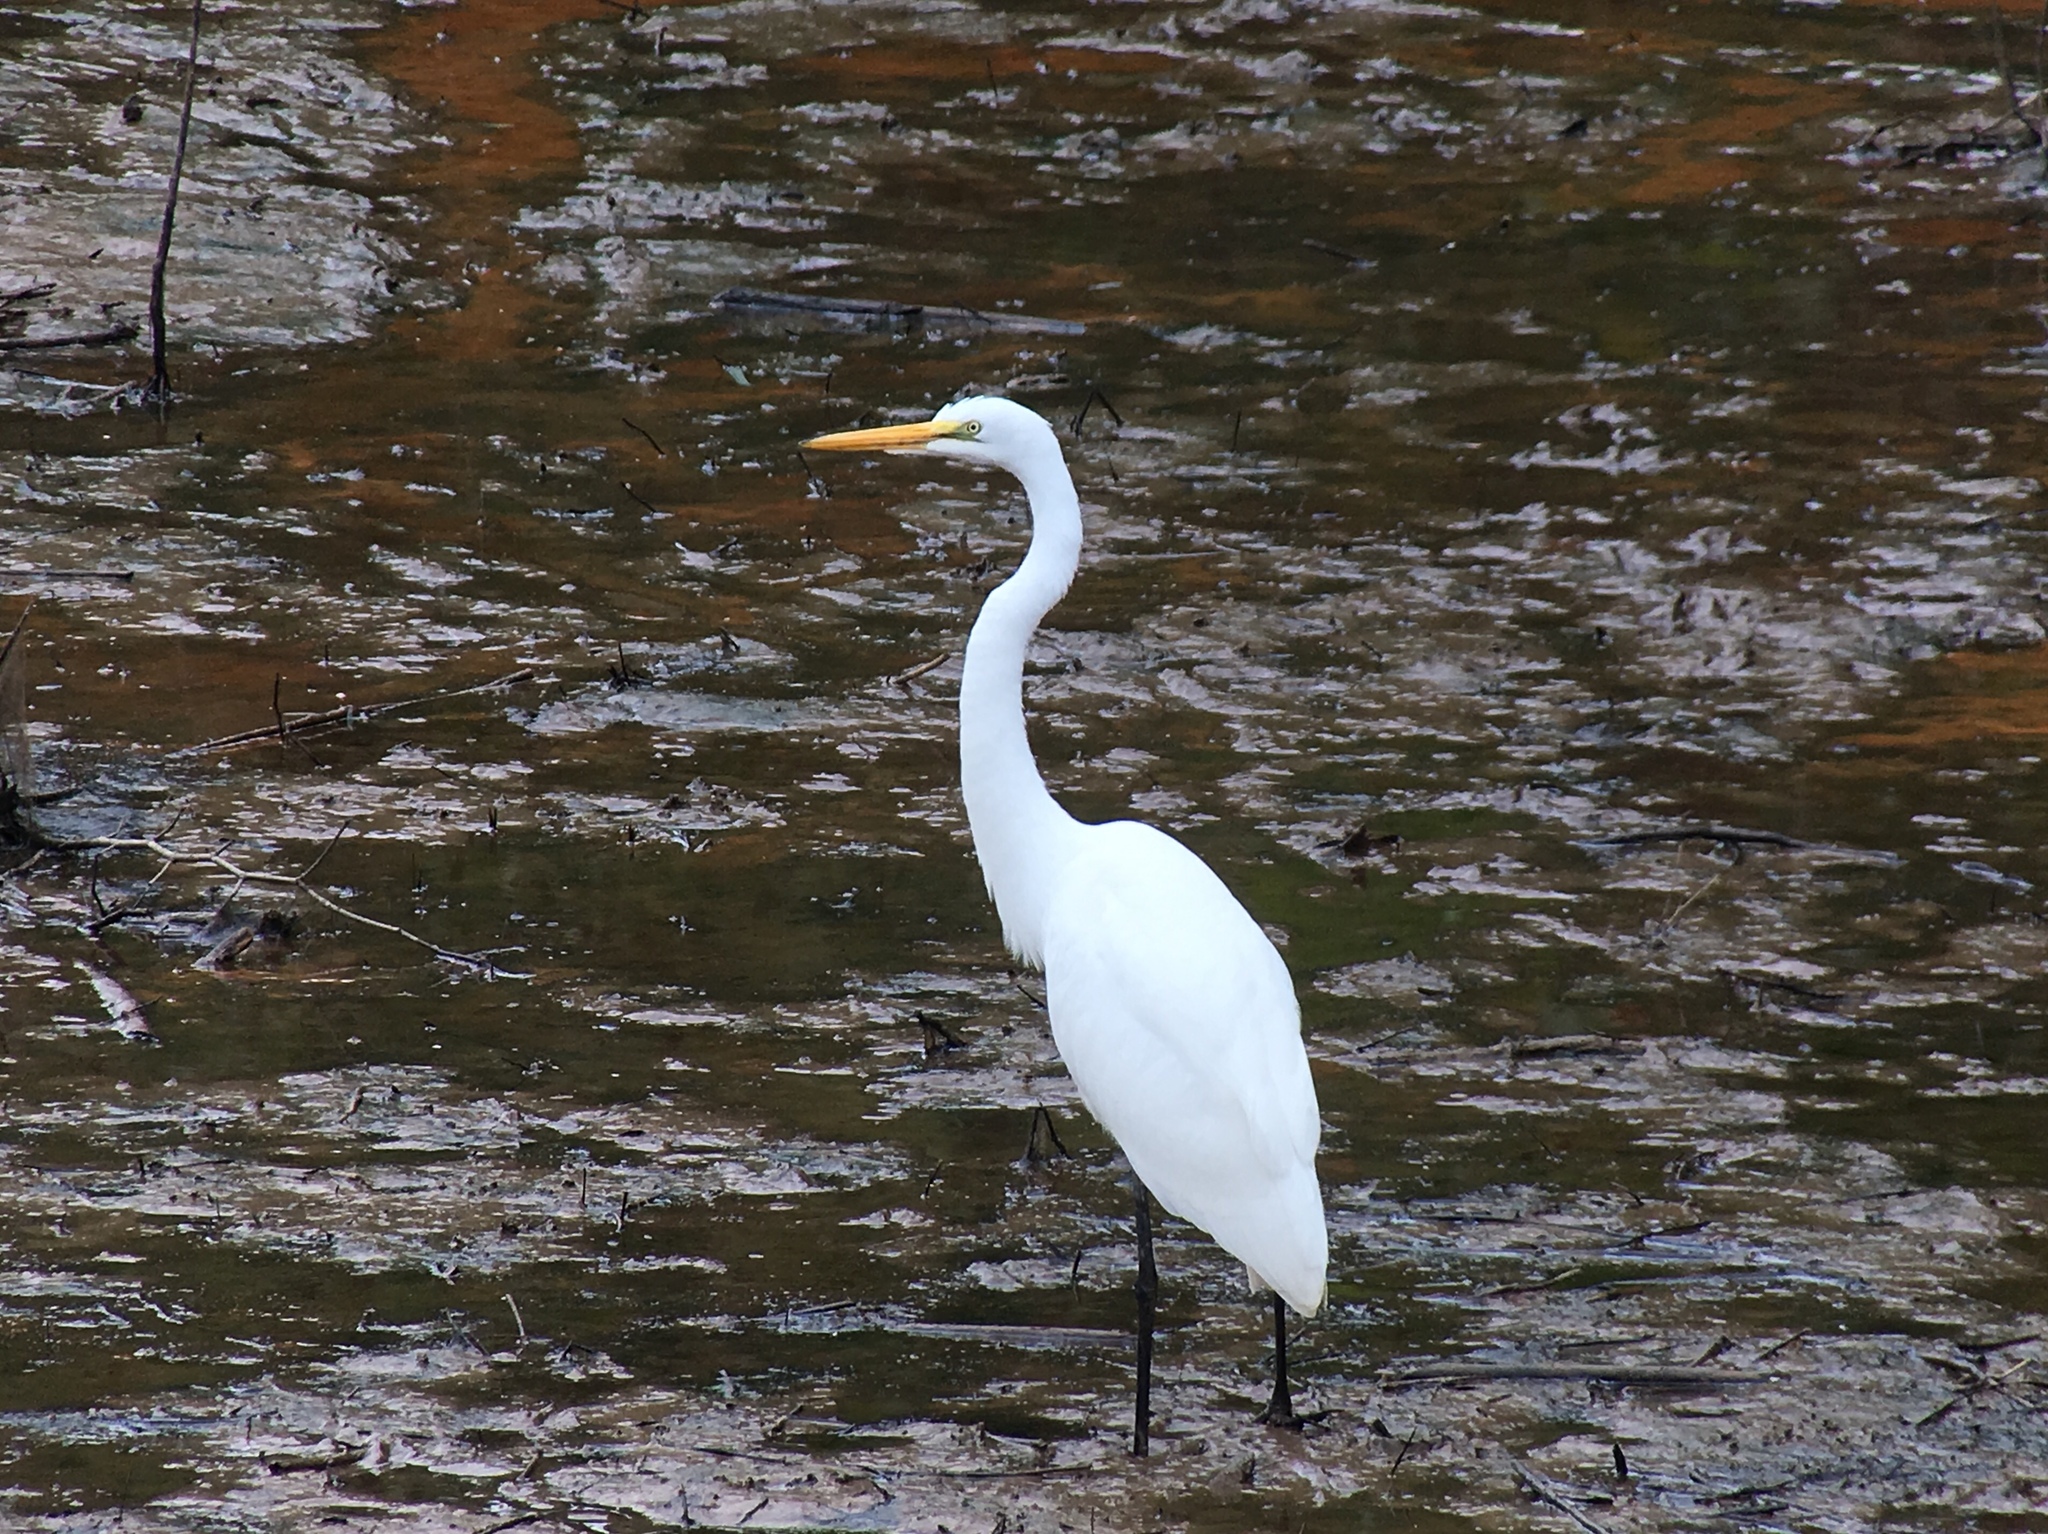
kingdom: Animalia
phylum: Chordata
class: Aves
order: Pelecaniformes
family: Ardeidae
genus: Ardea
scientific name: Ardea alba
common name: Great egret
